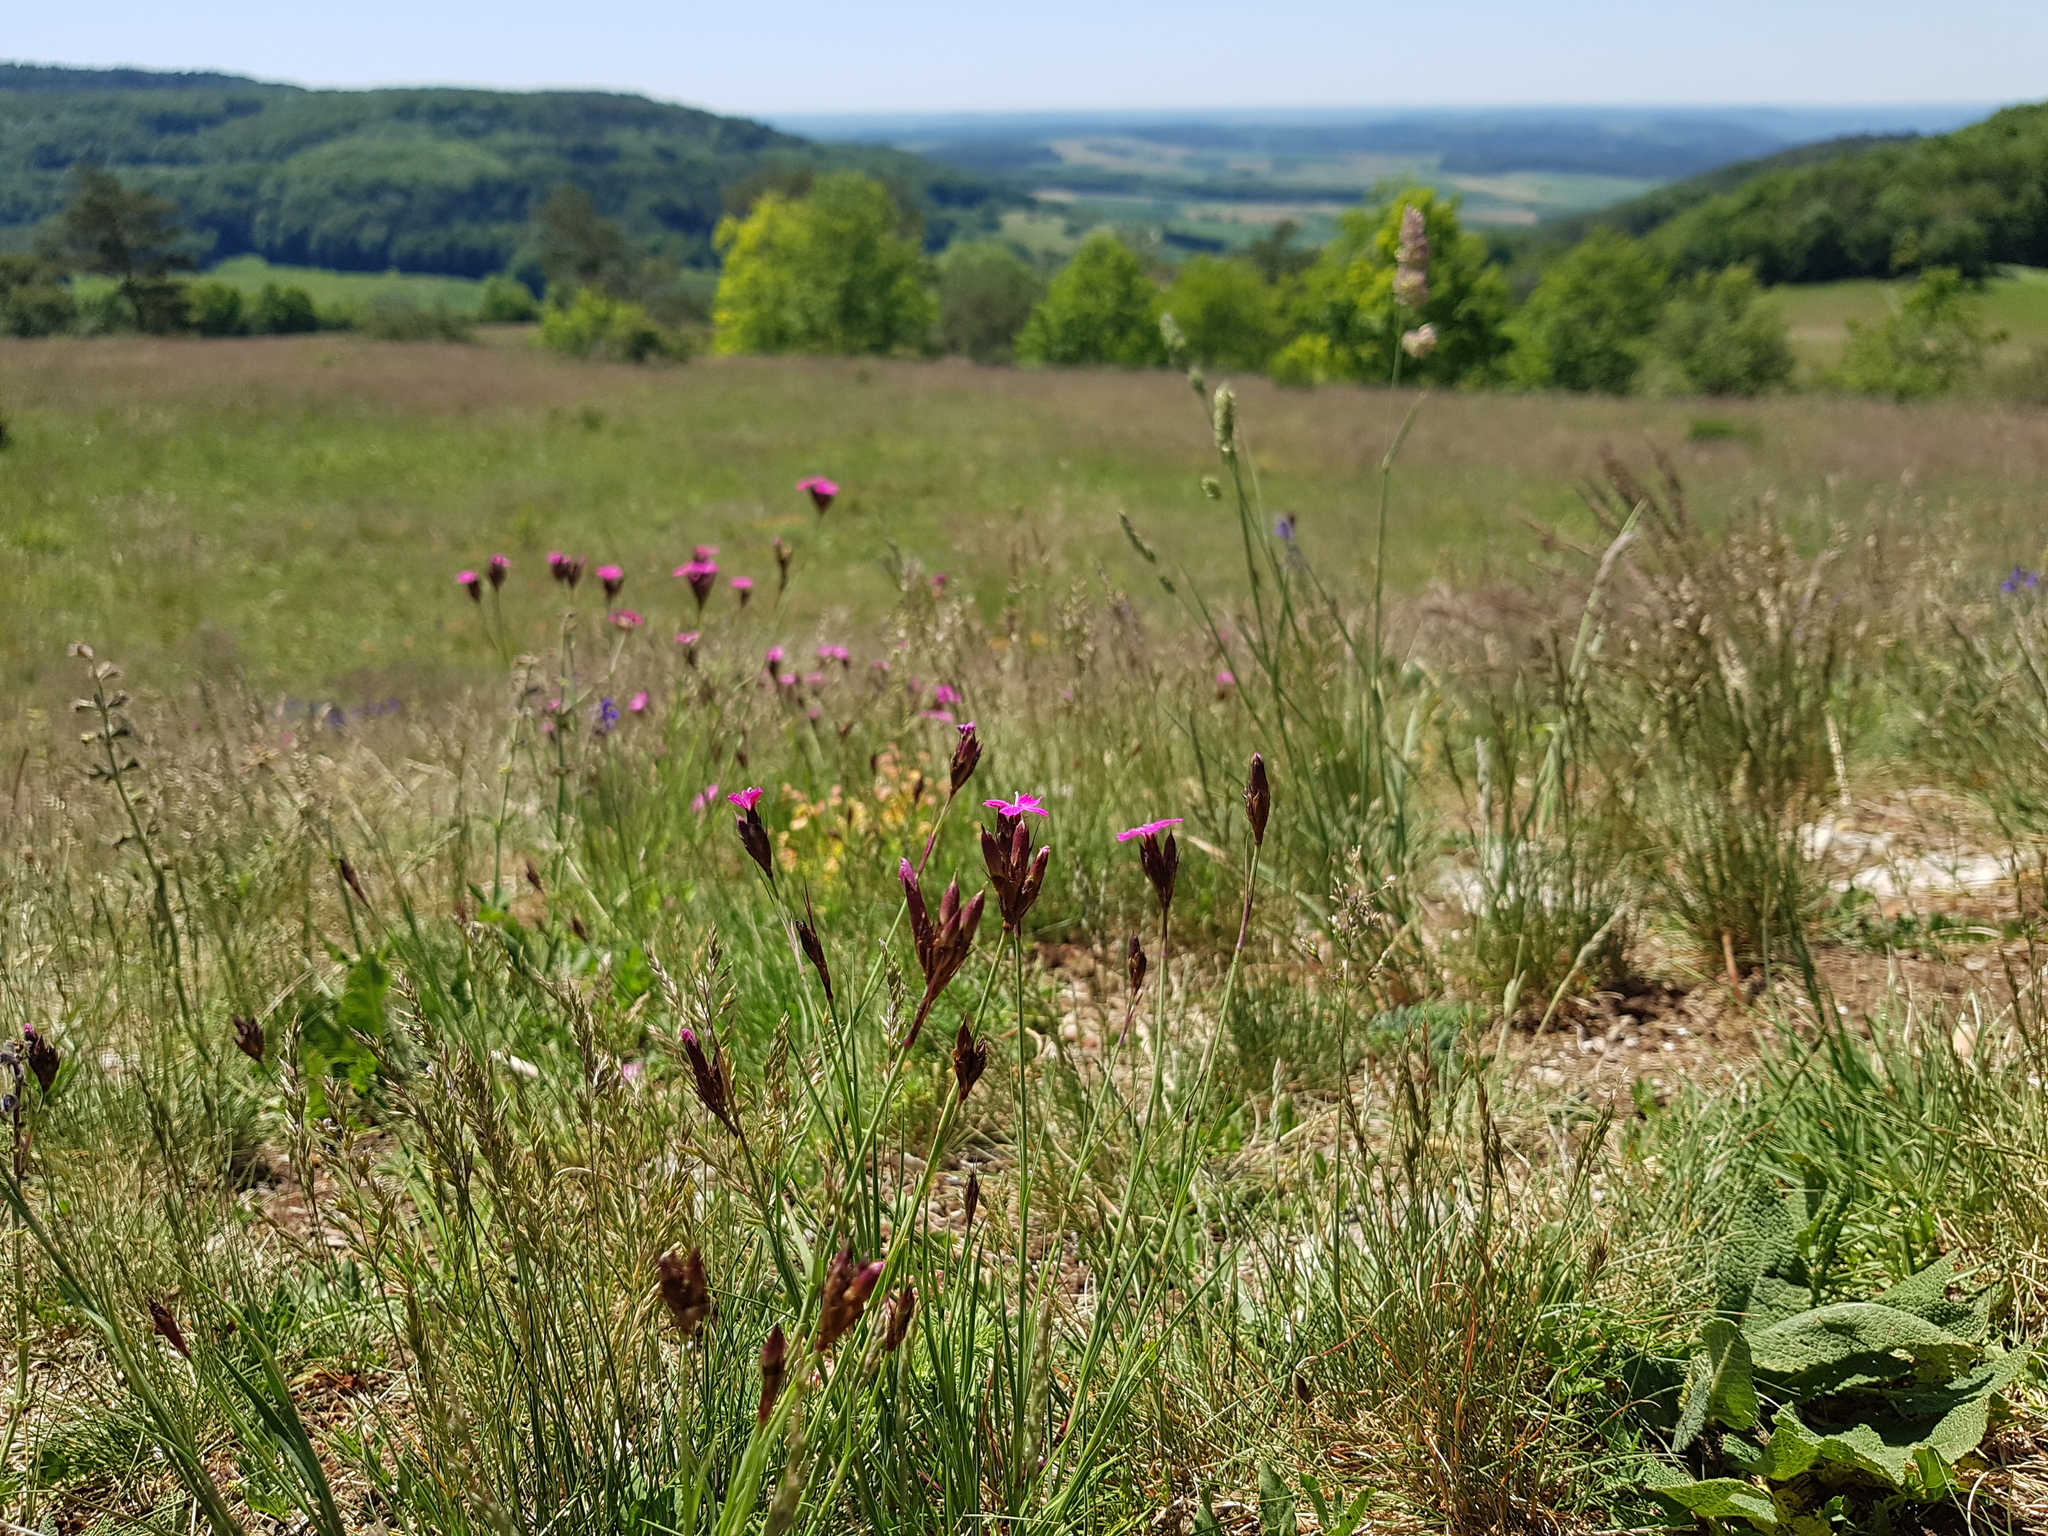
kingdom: Plantae
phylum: Tracheophyta
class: Magnoliopsida
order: Caryophyllales
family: Caryophyllaceae
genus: Dianthus
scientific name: Dianthus carthusianorum
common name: Carthusian pink
